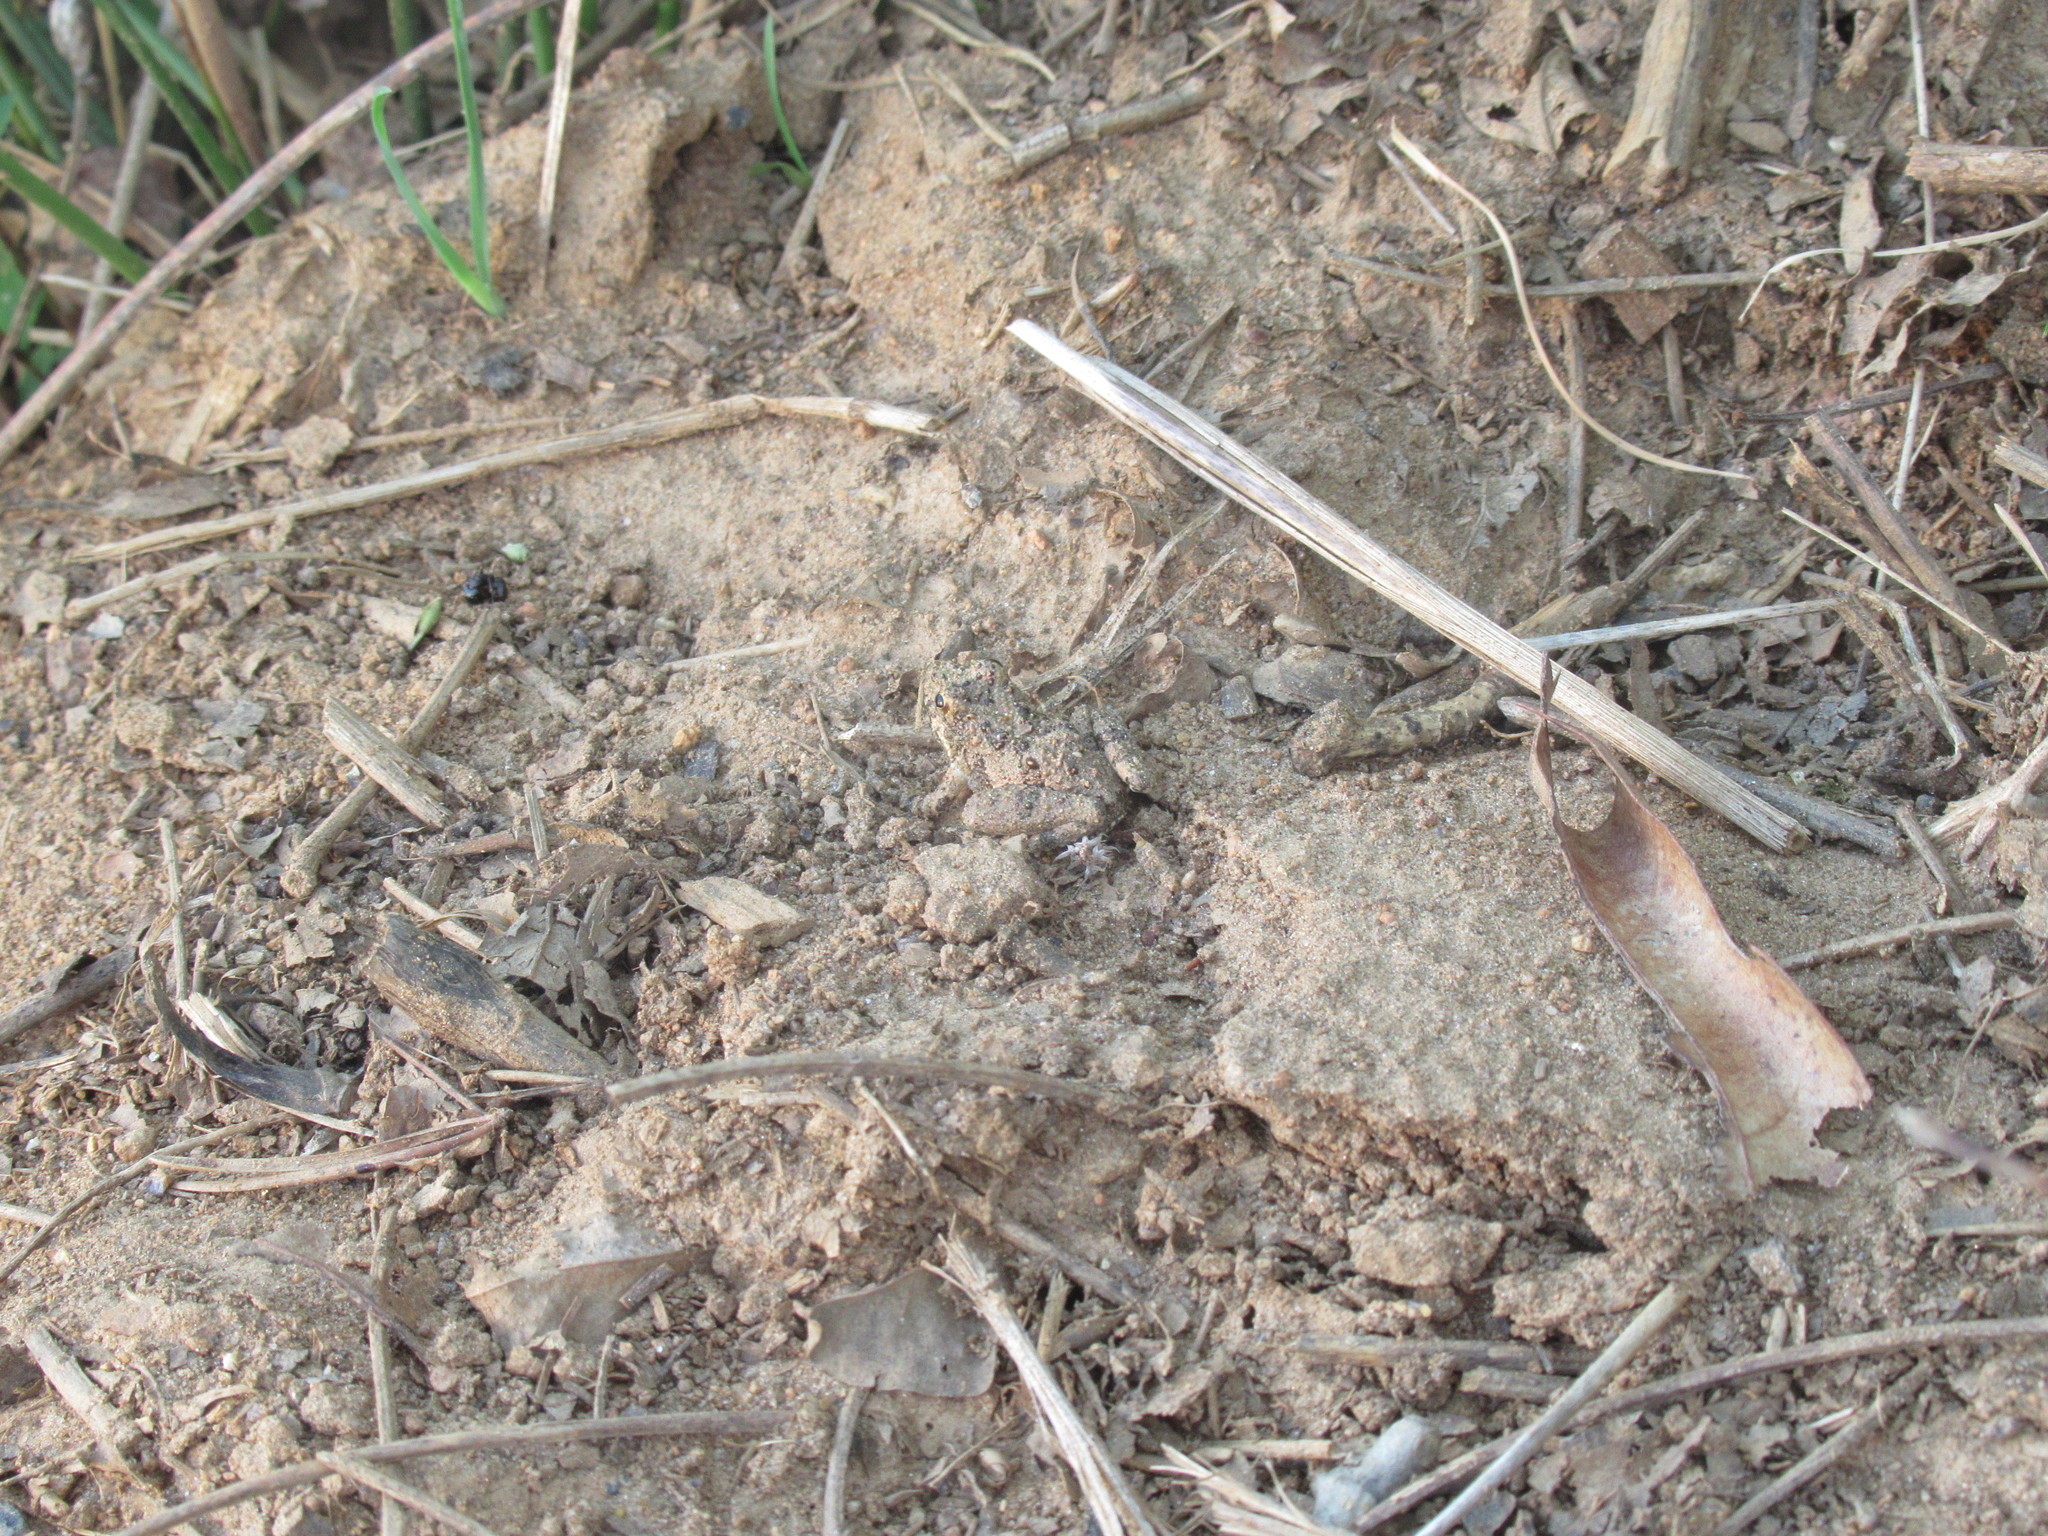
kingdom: Animalia
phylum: Chordata
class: Amphibia
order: Anura
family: Hylidae
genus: Acris
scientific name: Acris crepitans
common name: Northern cricket frog
